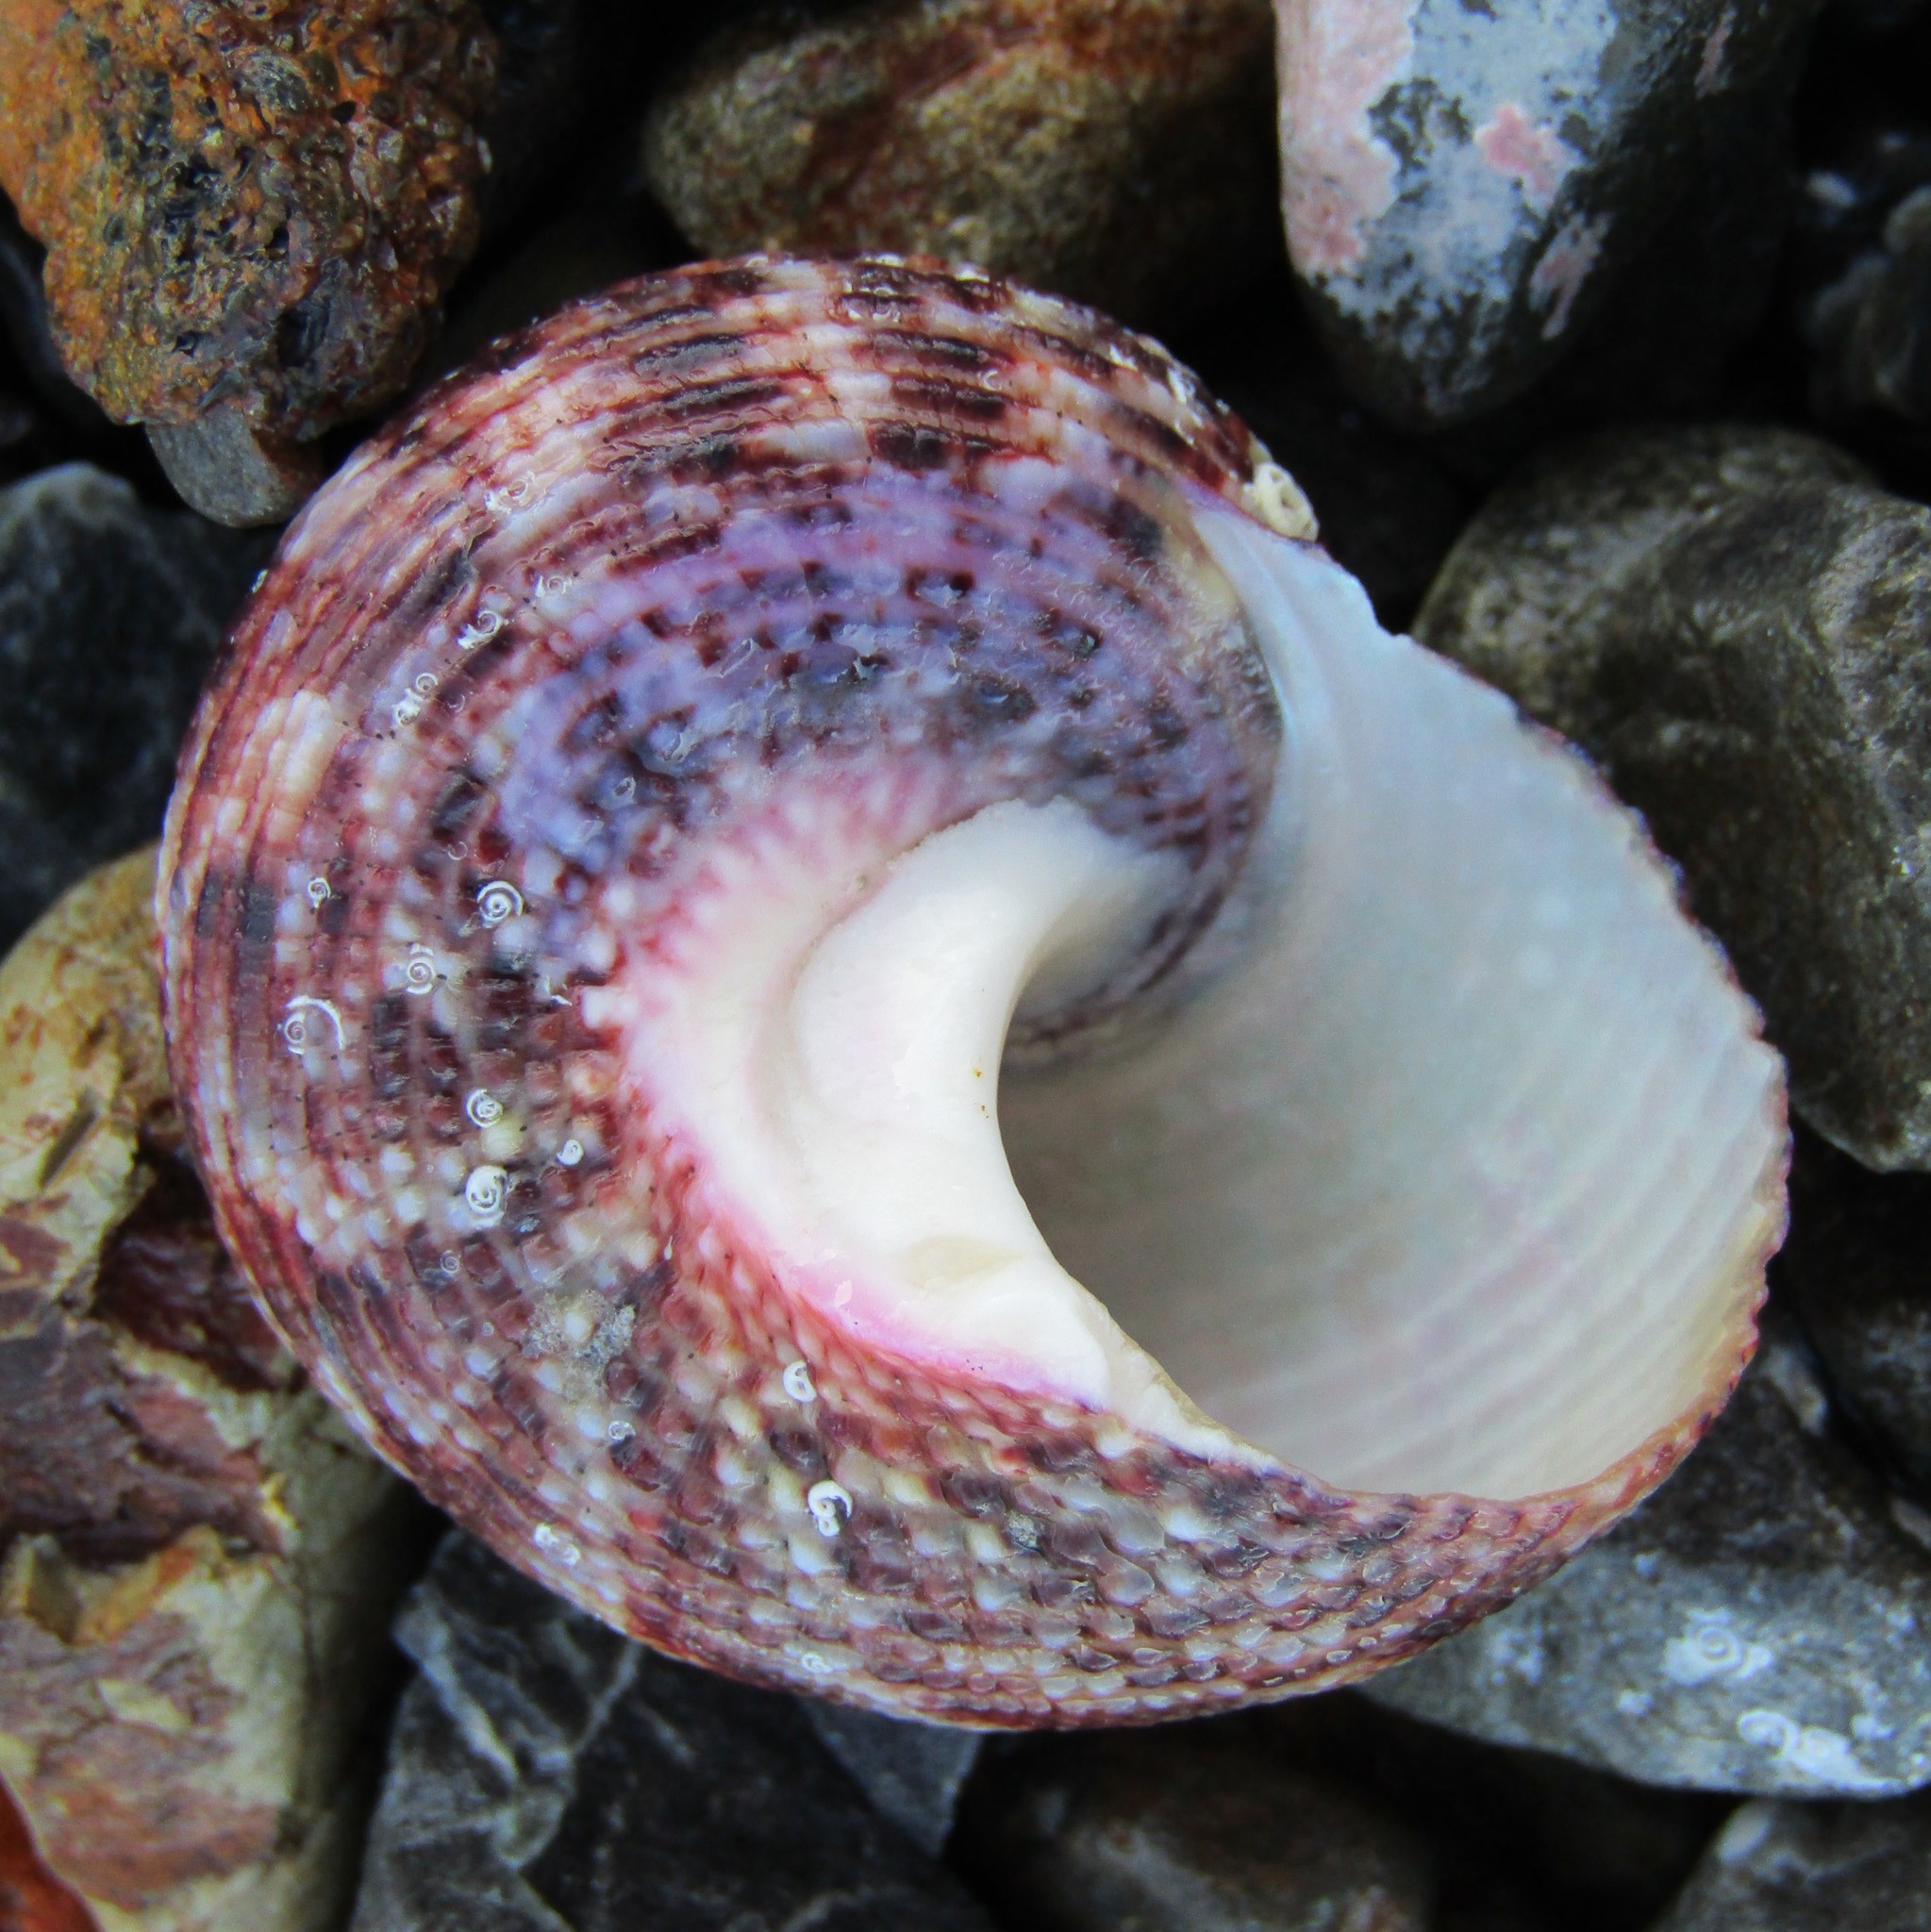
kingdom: Animalia
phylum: Mollusca
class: Gastropoda
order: Trochida
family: Turbinidae
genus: Modelia
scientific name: Modelia granosa
